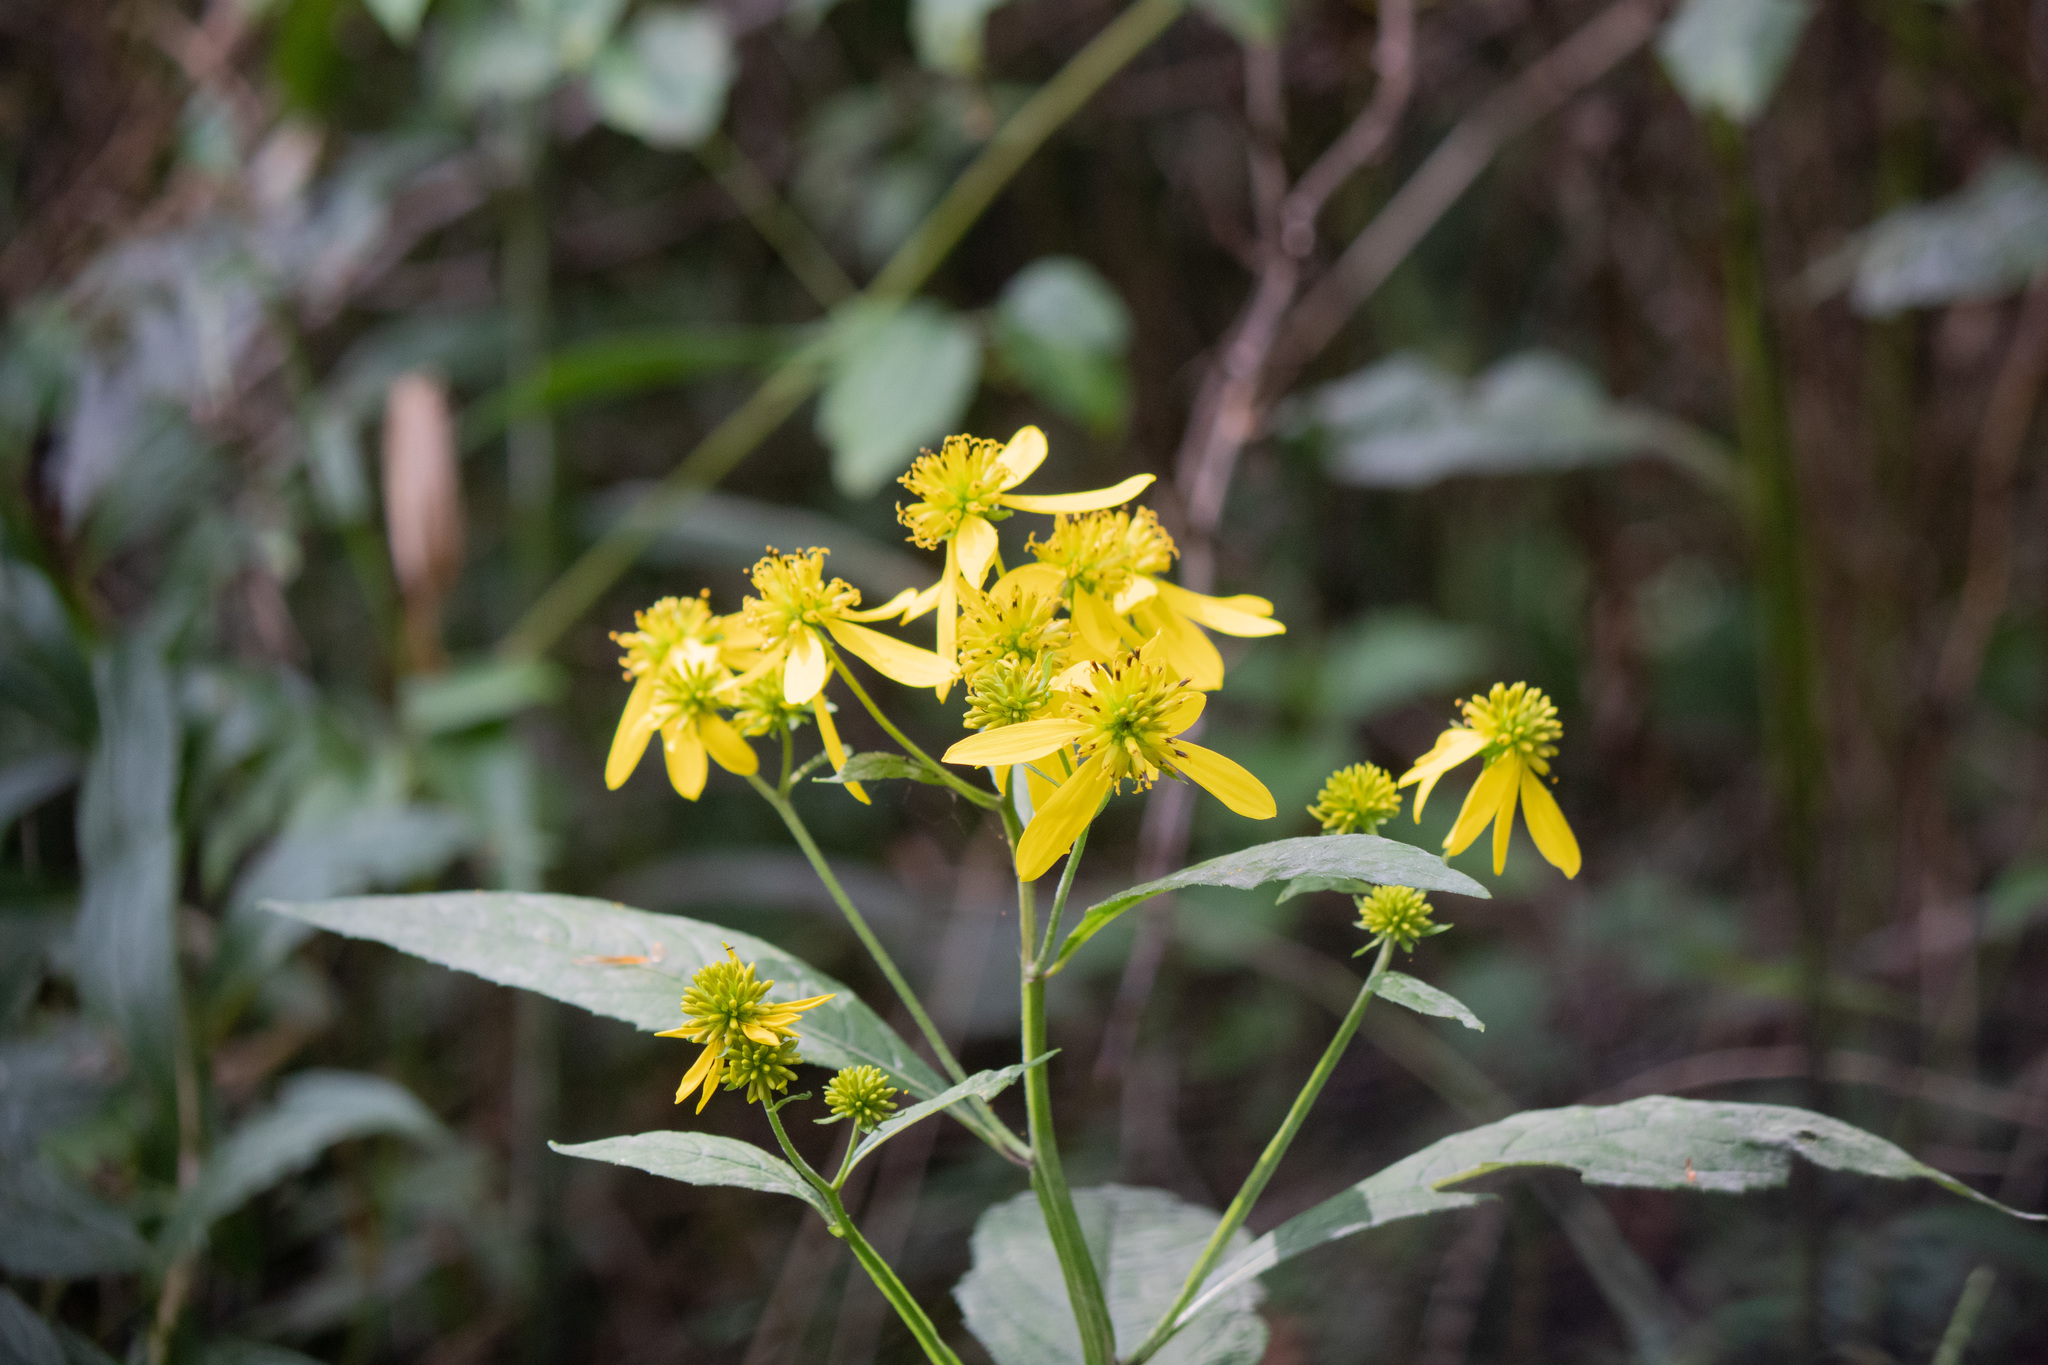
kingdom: Plantae
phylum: Tracheophyta
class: Magnoliopsida
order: Asterales
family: Asteraceae
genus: Verbesina
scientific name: Verbesina alternifolia
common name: Wingstem
